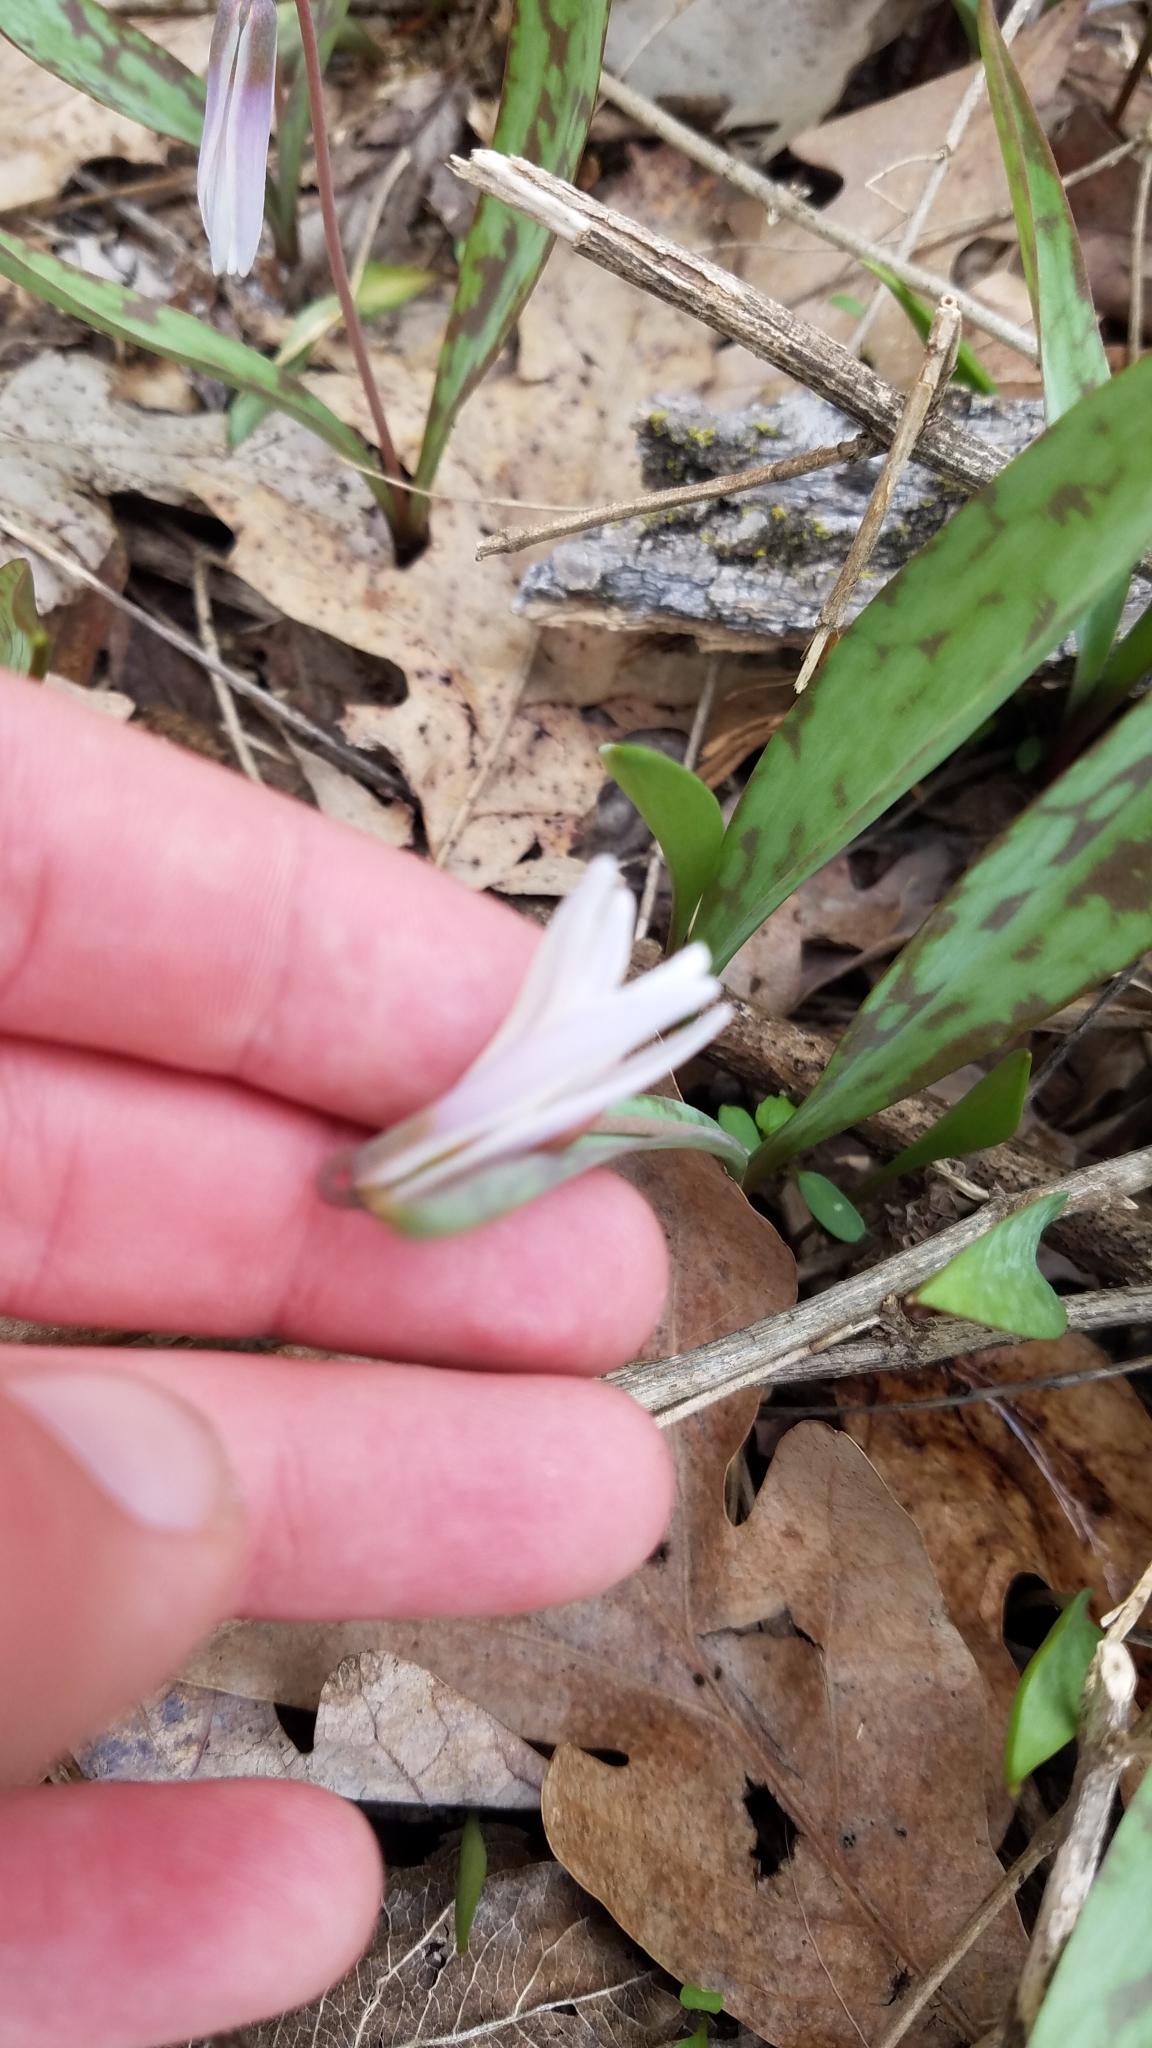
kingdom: Plantae
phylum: Tracheophyta
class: Liliopsida
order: Liliales
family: Liliaceae
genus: Erythronium
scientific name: Erythronium albidum
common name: White trout-lily
